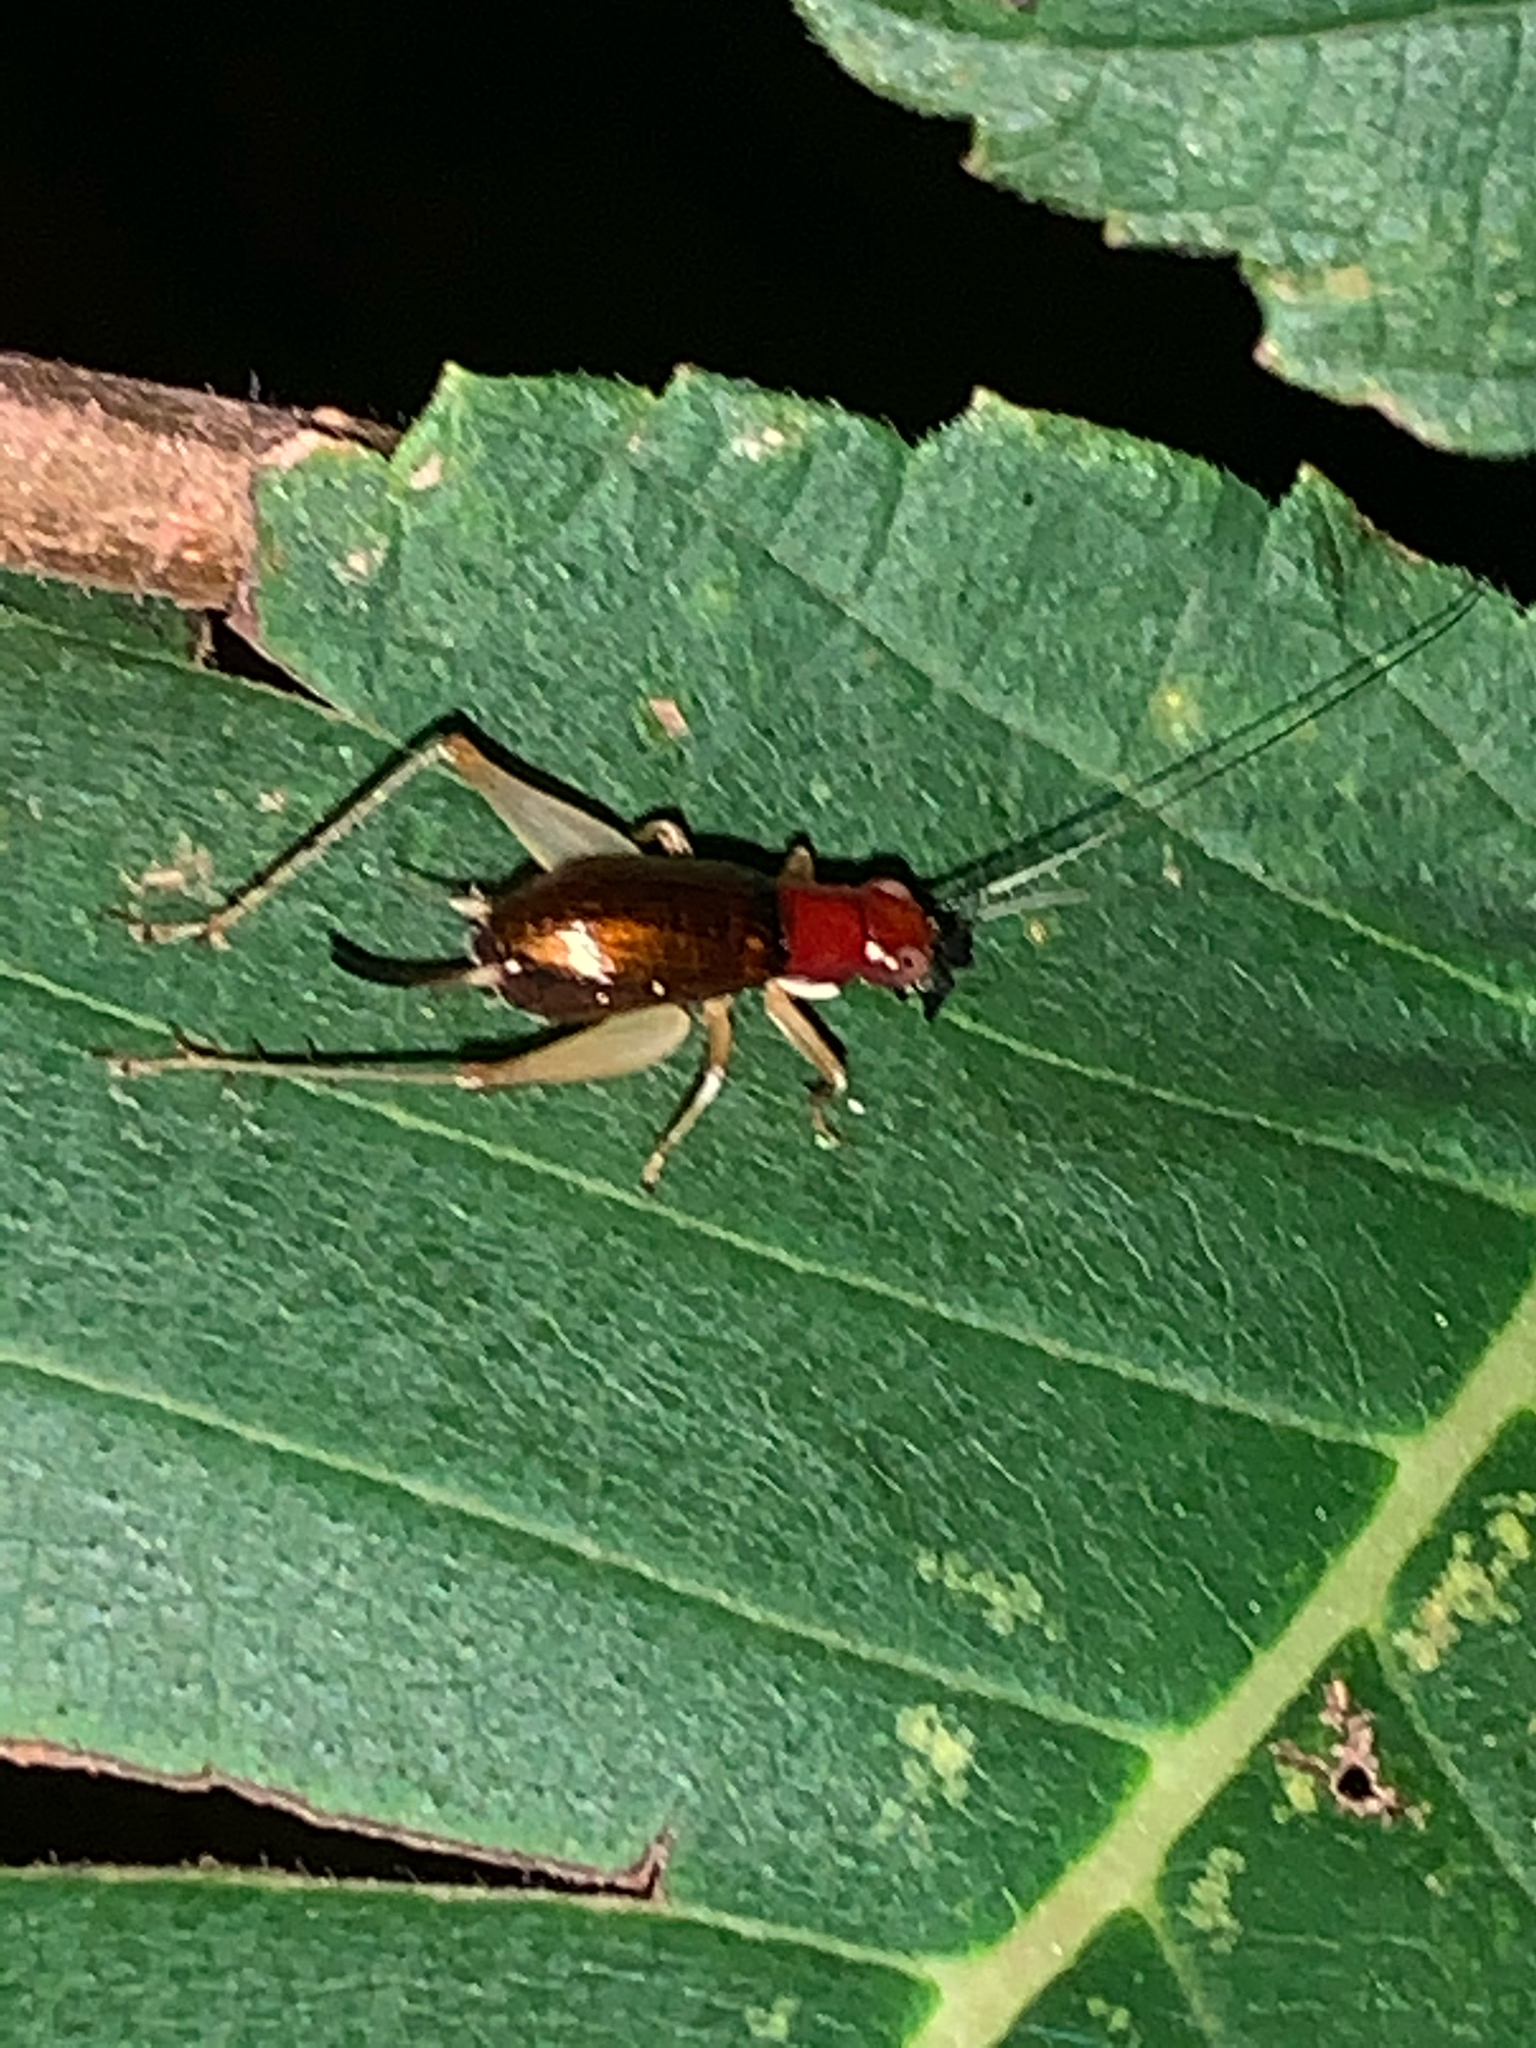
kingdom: Animalia
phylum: Arthropoda
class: Insecta
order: Orthoptera
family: Trigonidiidae
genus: Phyllopalpus
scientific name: Phyllopalpus pulchellus
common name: Handsome trig
